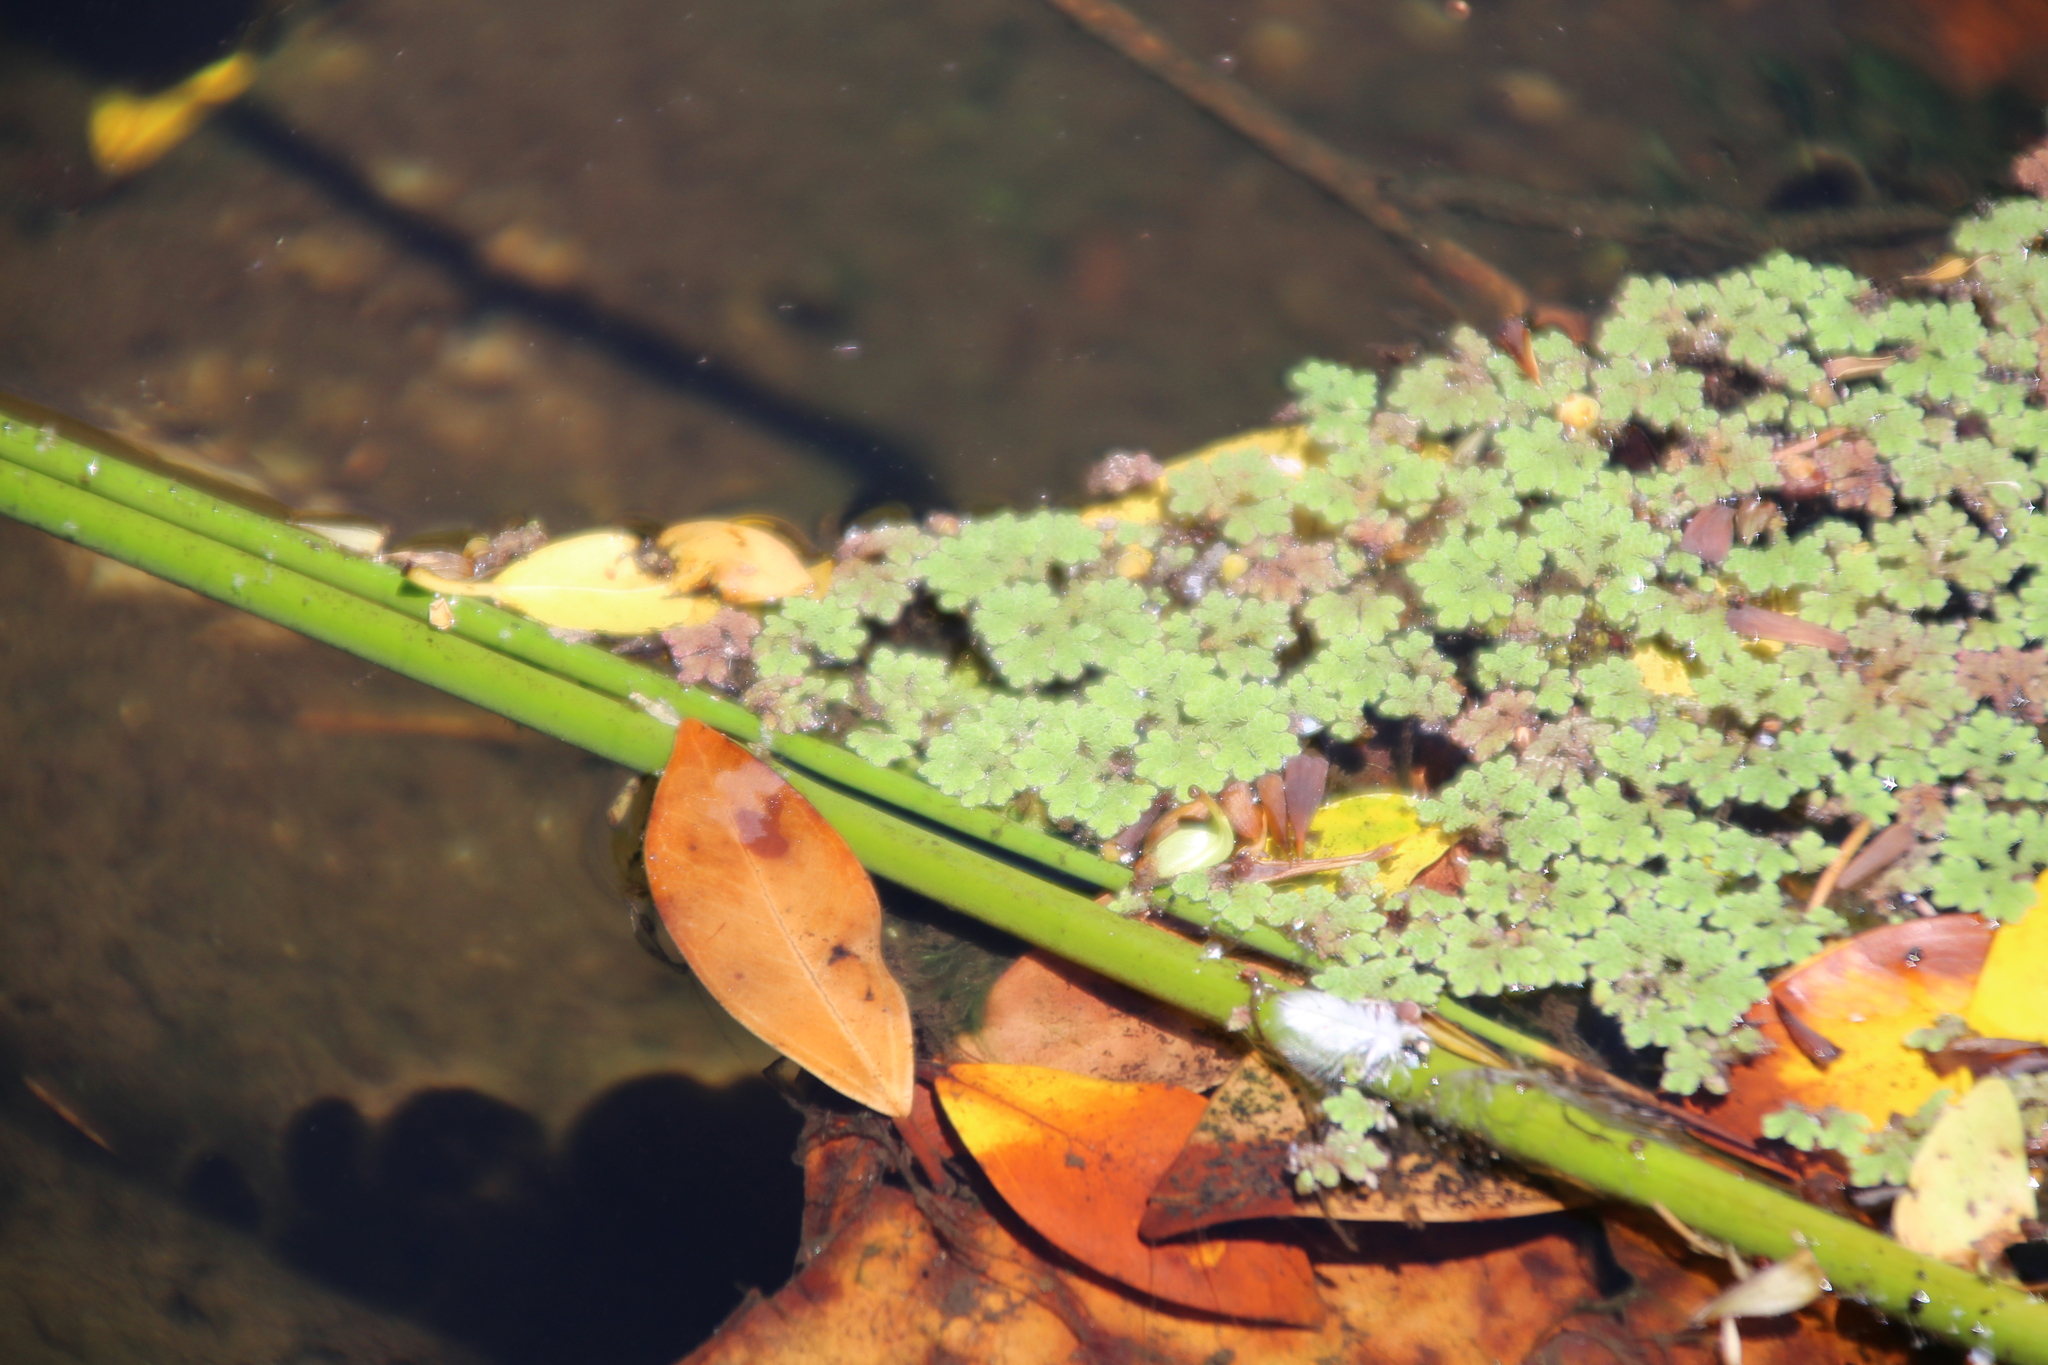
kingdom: Plantae
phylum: Tracheophyta
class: Polypodiopsida
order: Salviniales
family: Salviniaceae
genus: Azolla
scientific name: Azolla rubra
